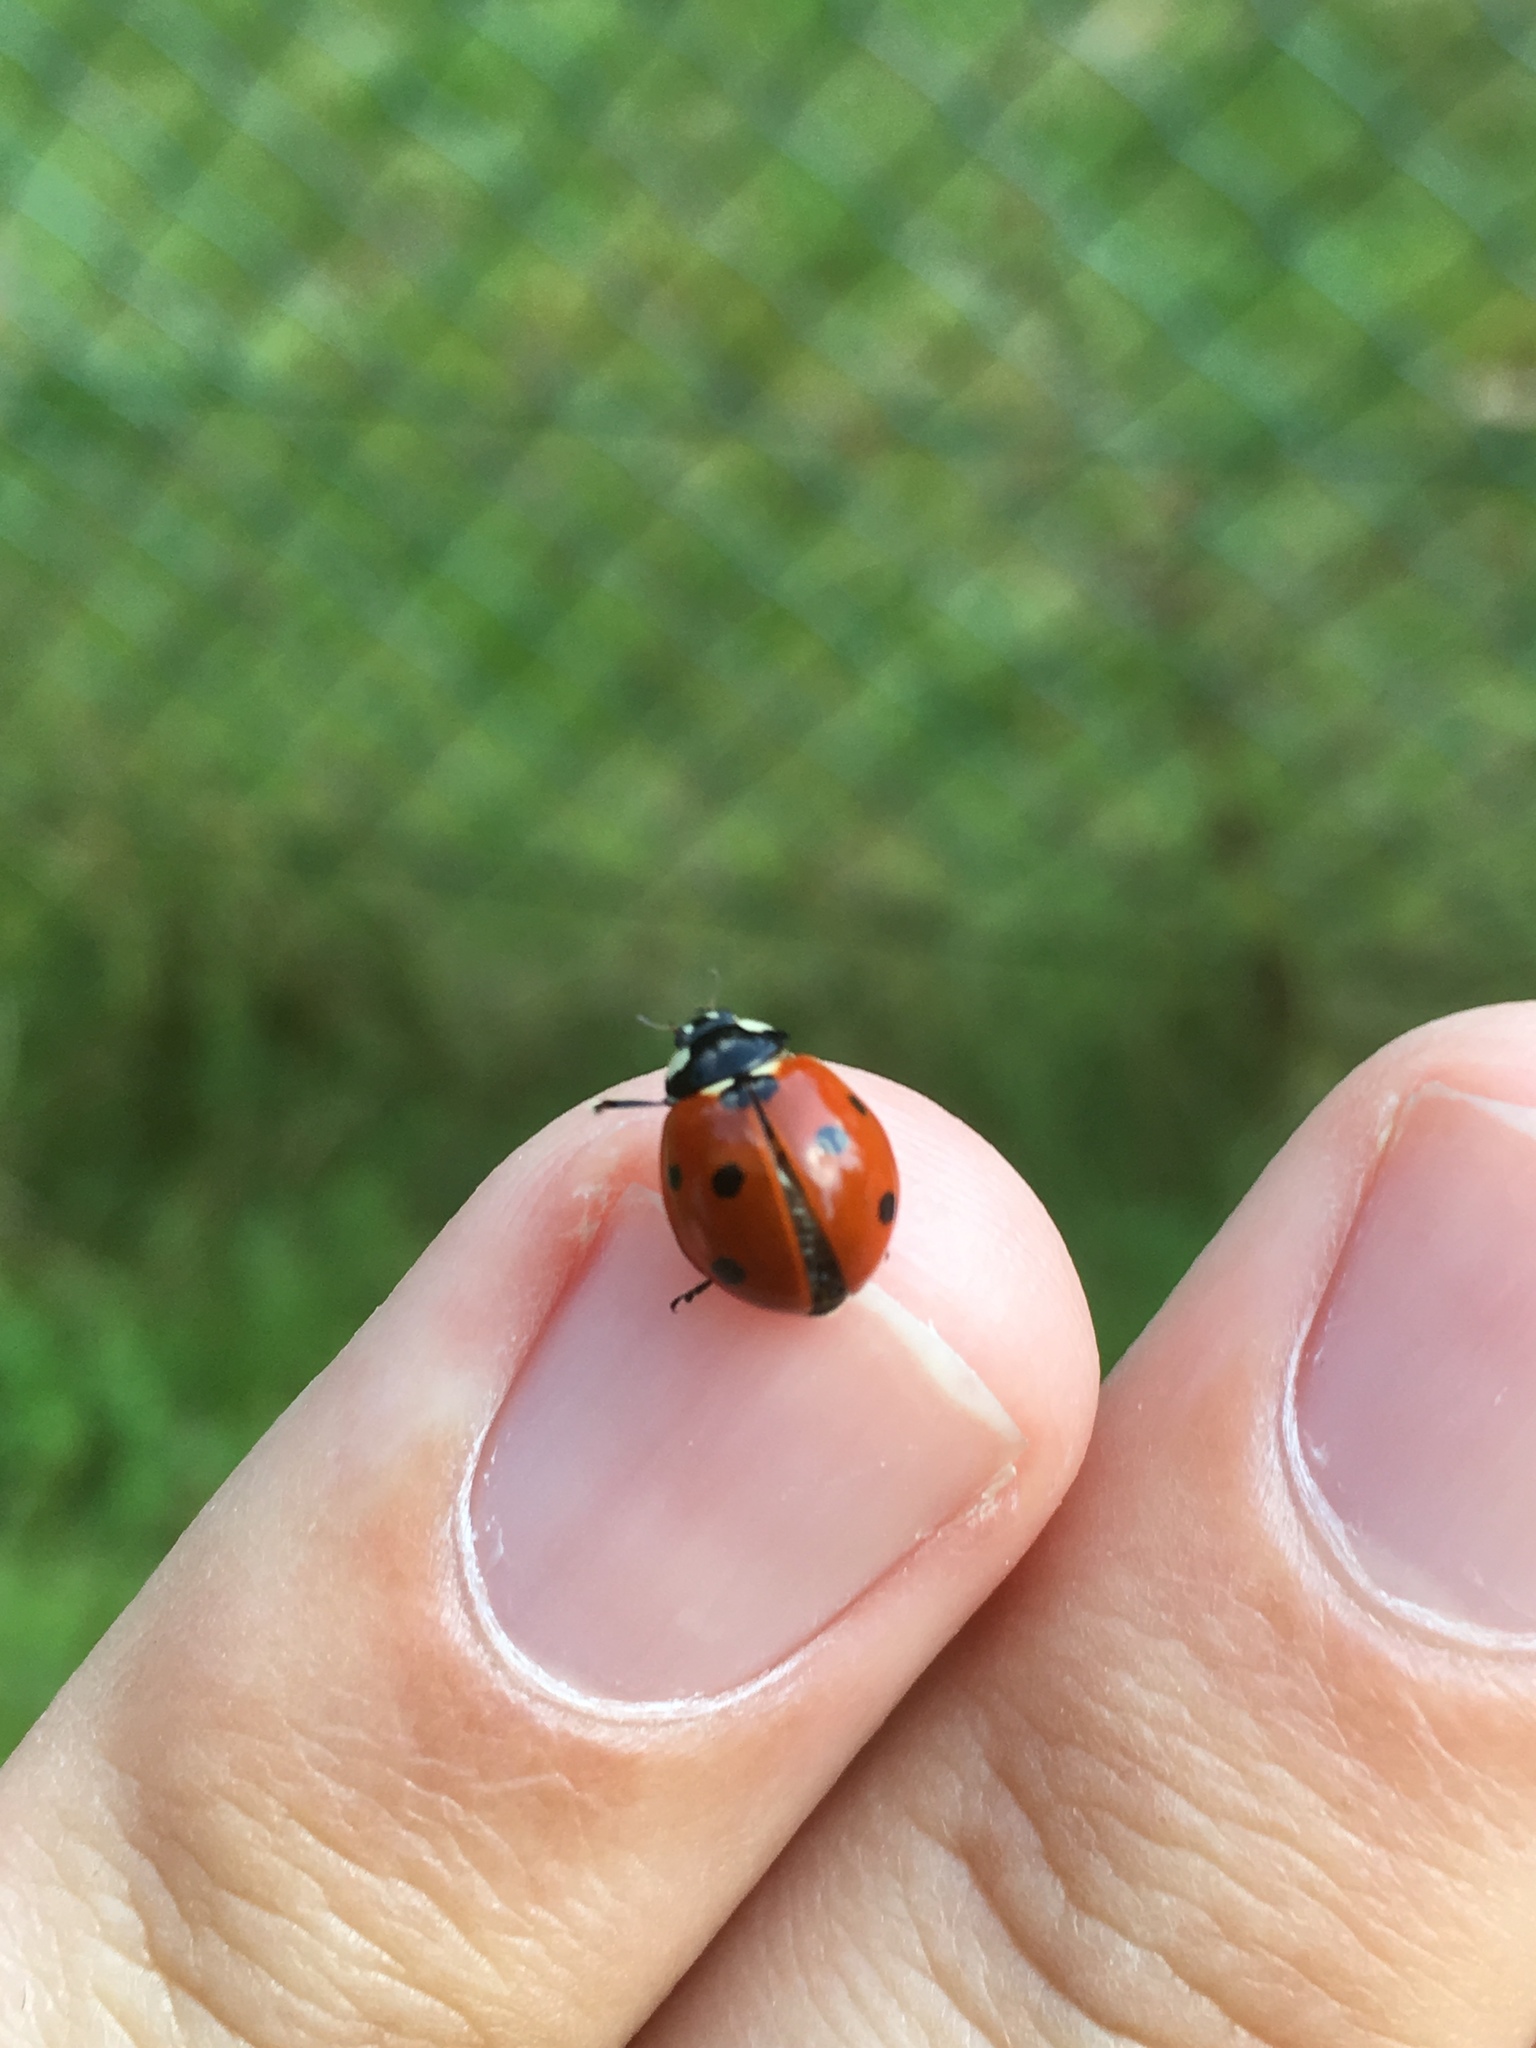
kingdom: Animalia
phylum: Arthropoda
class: Insecta
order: Coleoptera
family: Coccinellidae
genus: Coccinella
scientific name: Coccinella septempunctata
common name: Sevenspotted lady beetle
